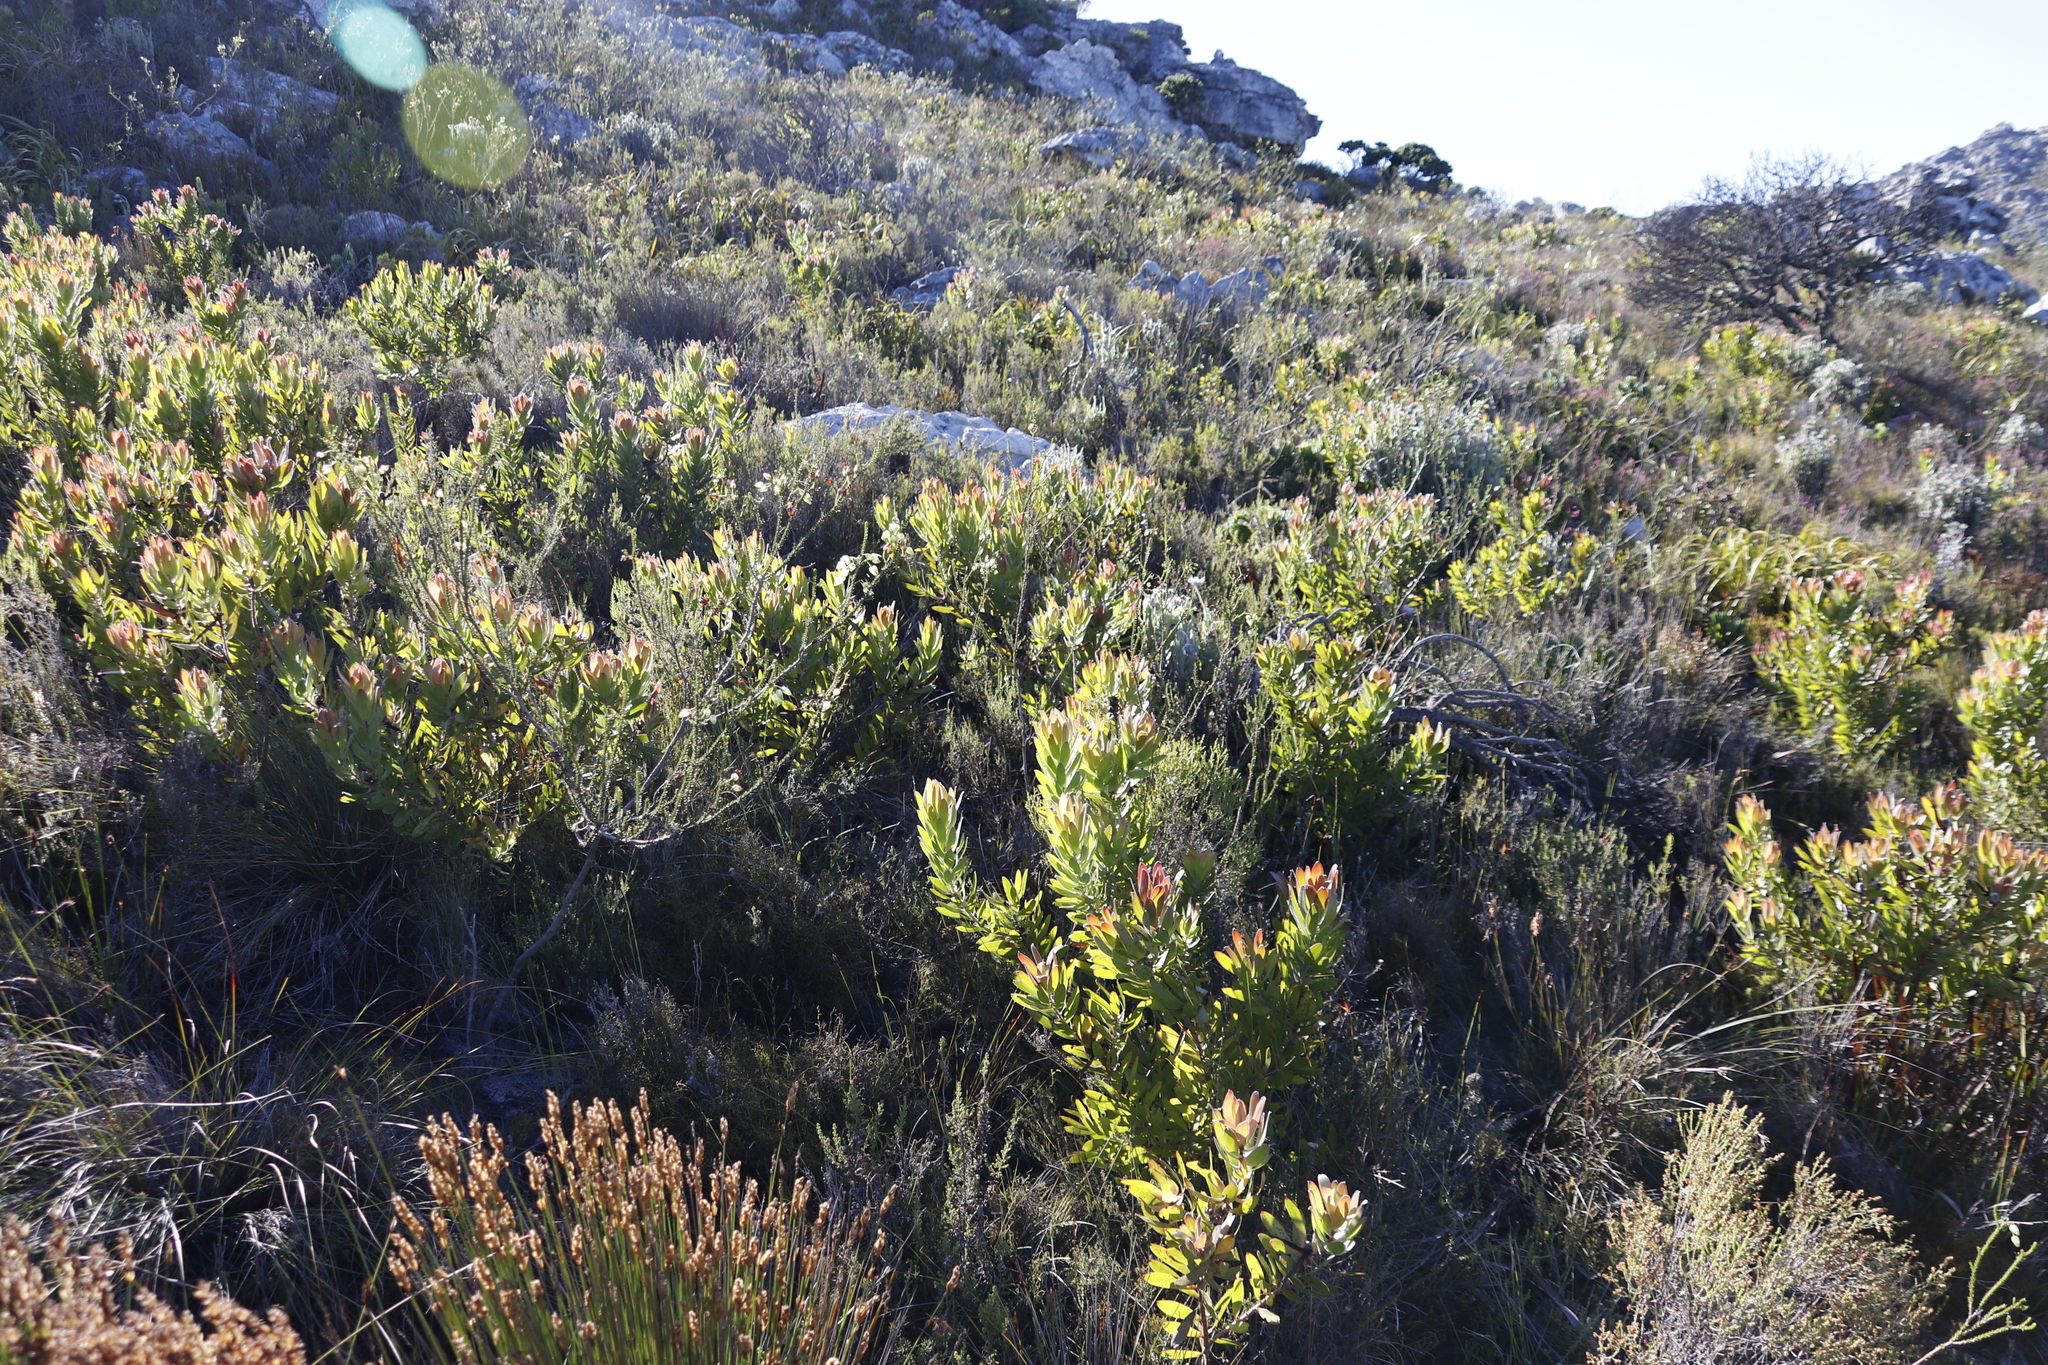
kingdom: Plantae
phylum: Tracheophyta
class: Magnoliopsida
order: Proteales
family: Proteaceae
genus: Leucadendron
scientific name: Leucadendron laureolum
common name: Golden sunshinebush
